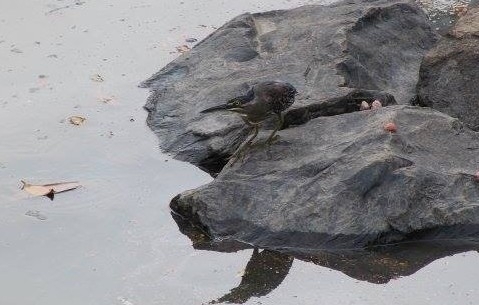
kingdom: Animalia
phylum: Chordata
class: Aves
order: Pelecaniformes
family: Ardeidae
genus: Butorides
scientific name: Butorides striata
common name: Striated heron
